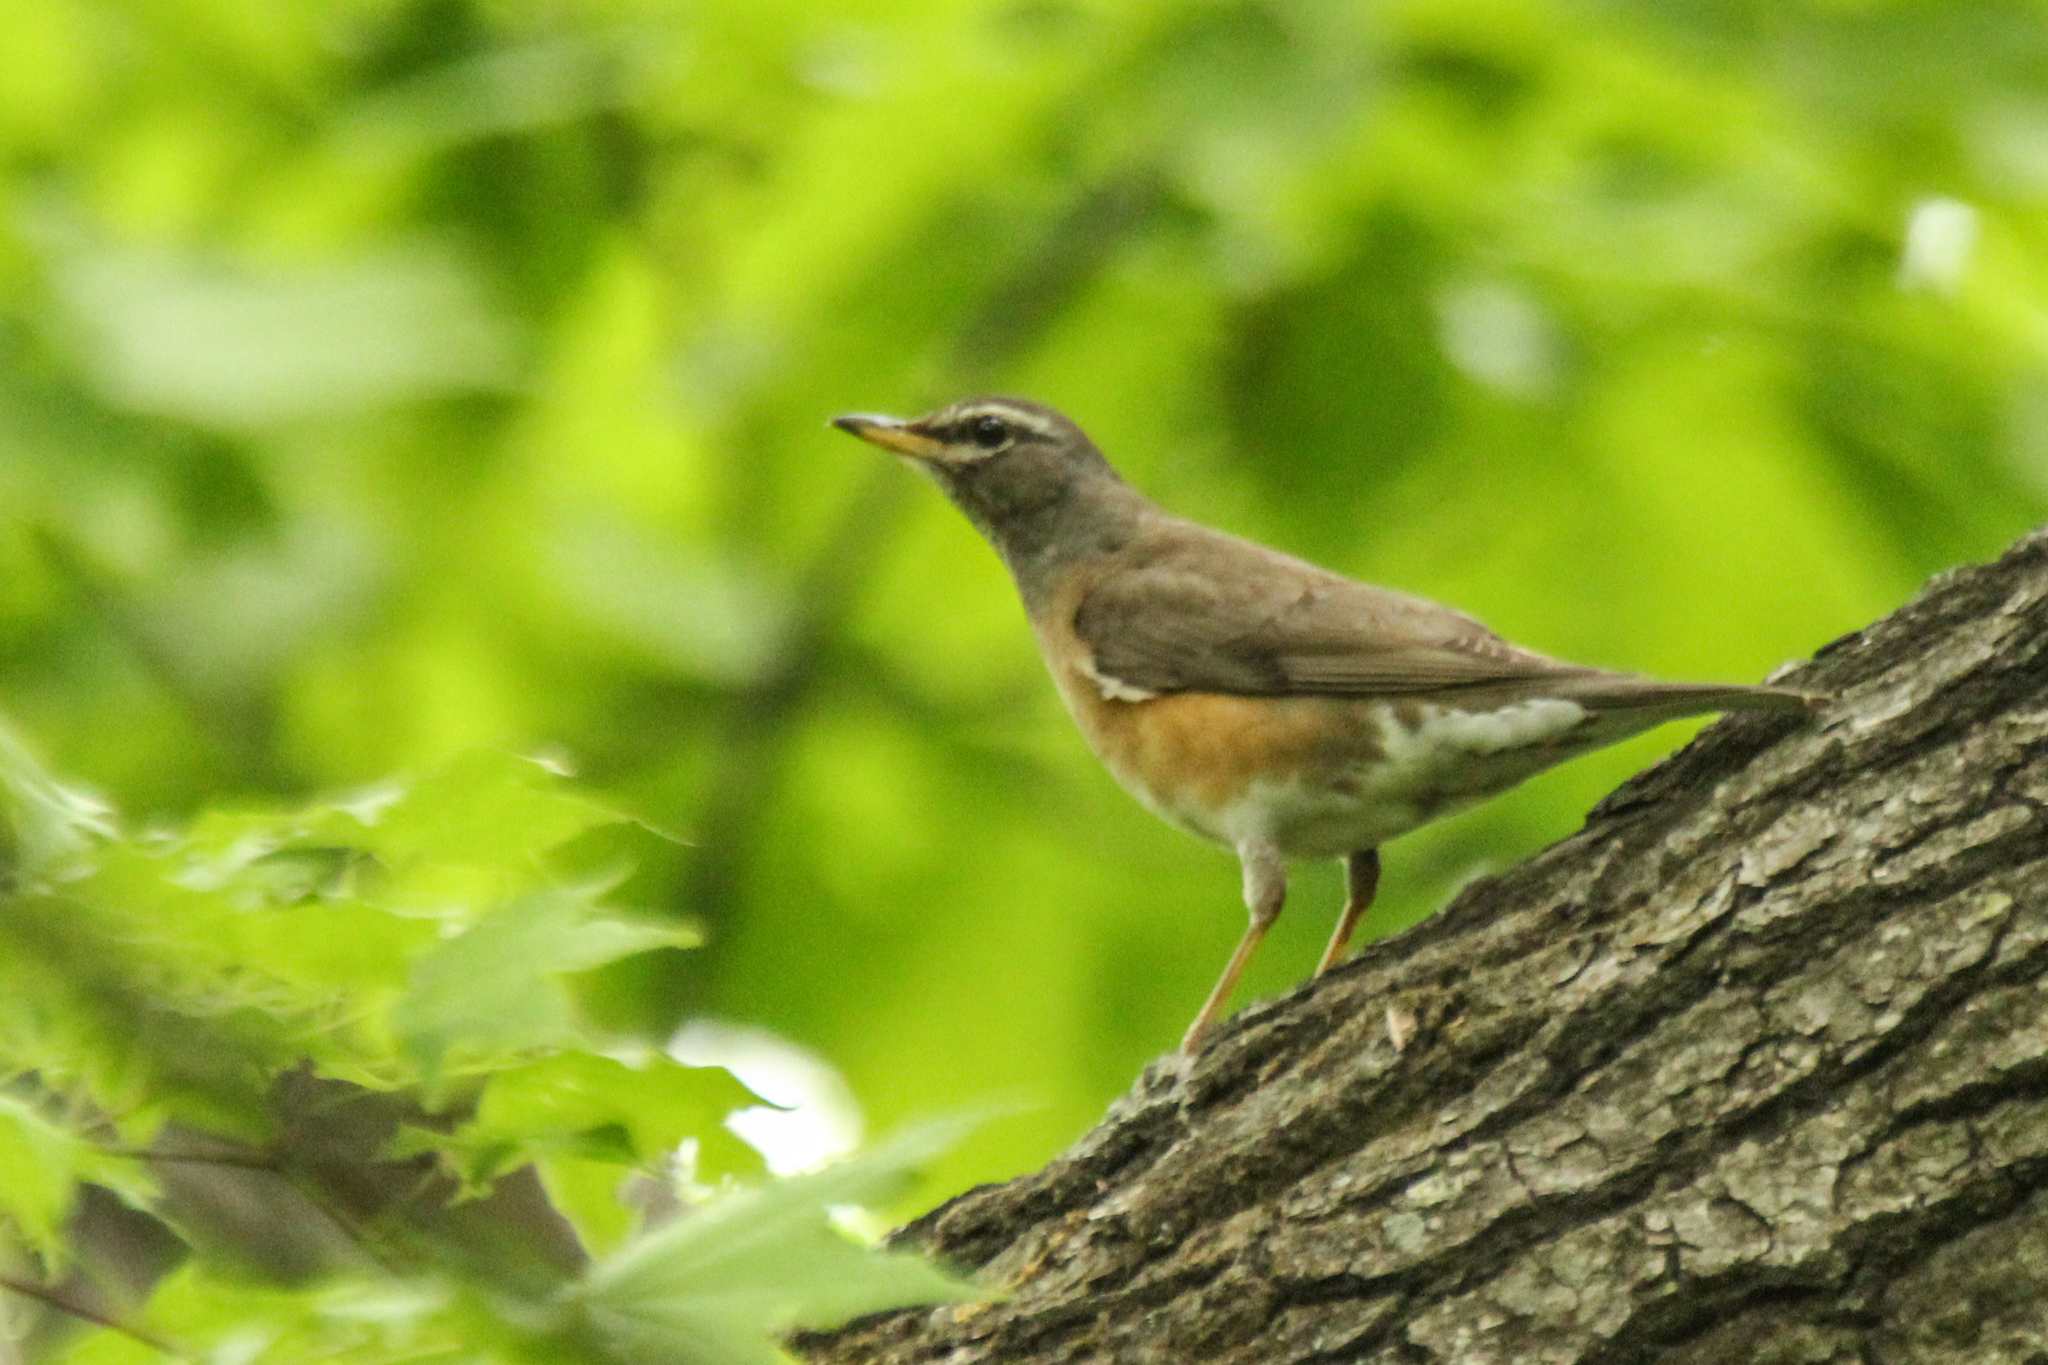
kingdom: Animalia
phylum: Chordata
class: Aves
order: Passeriformes
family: Turdidae
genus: Turdus
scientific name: Turdus obscurus
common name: Eyebrowed thrush
